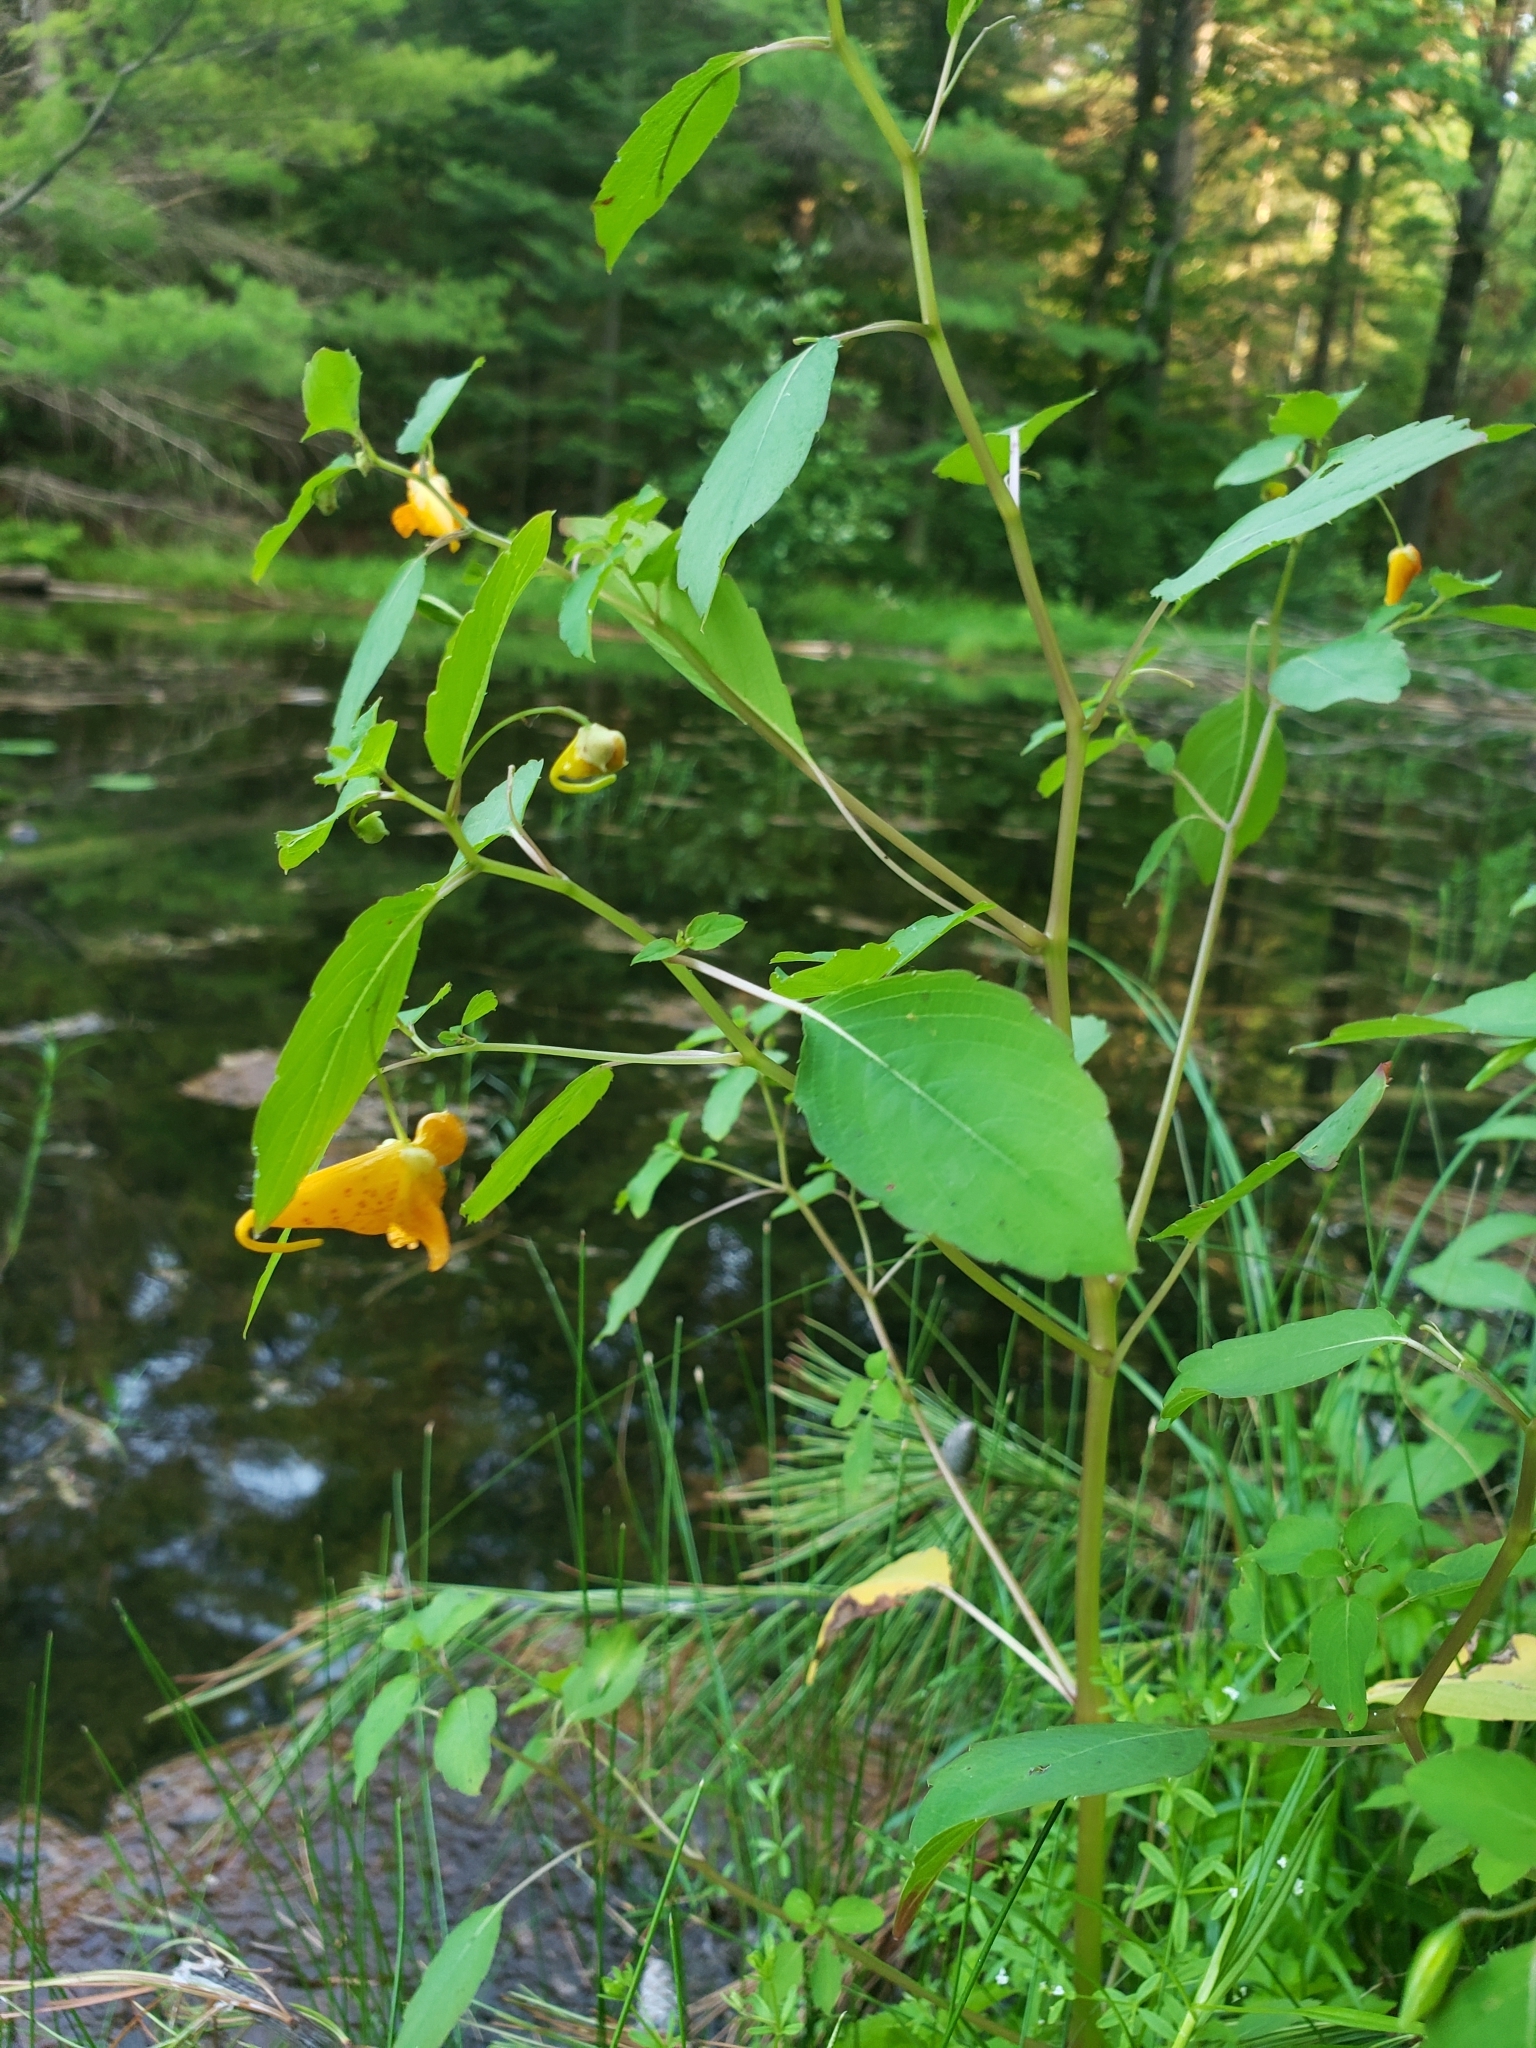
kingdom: Plantae
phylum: Tracheophyta
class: Magnoliopsida
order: Ericales
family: Balsaminaceae
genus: Impatiens
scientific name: Impatiens capensis
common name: Orange balsam
